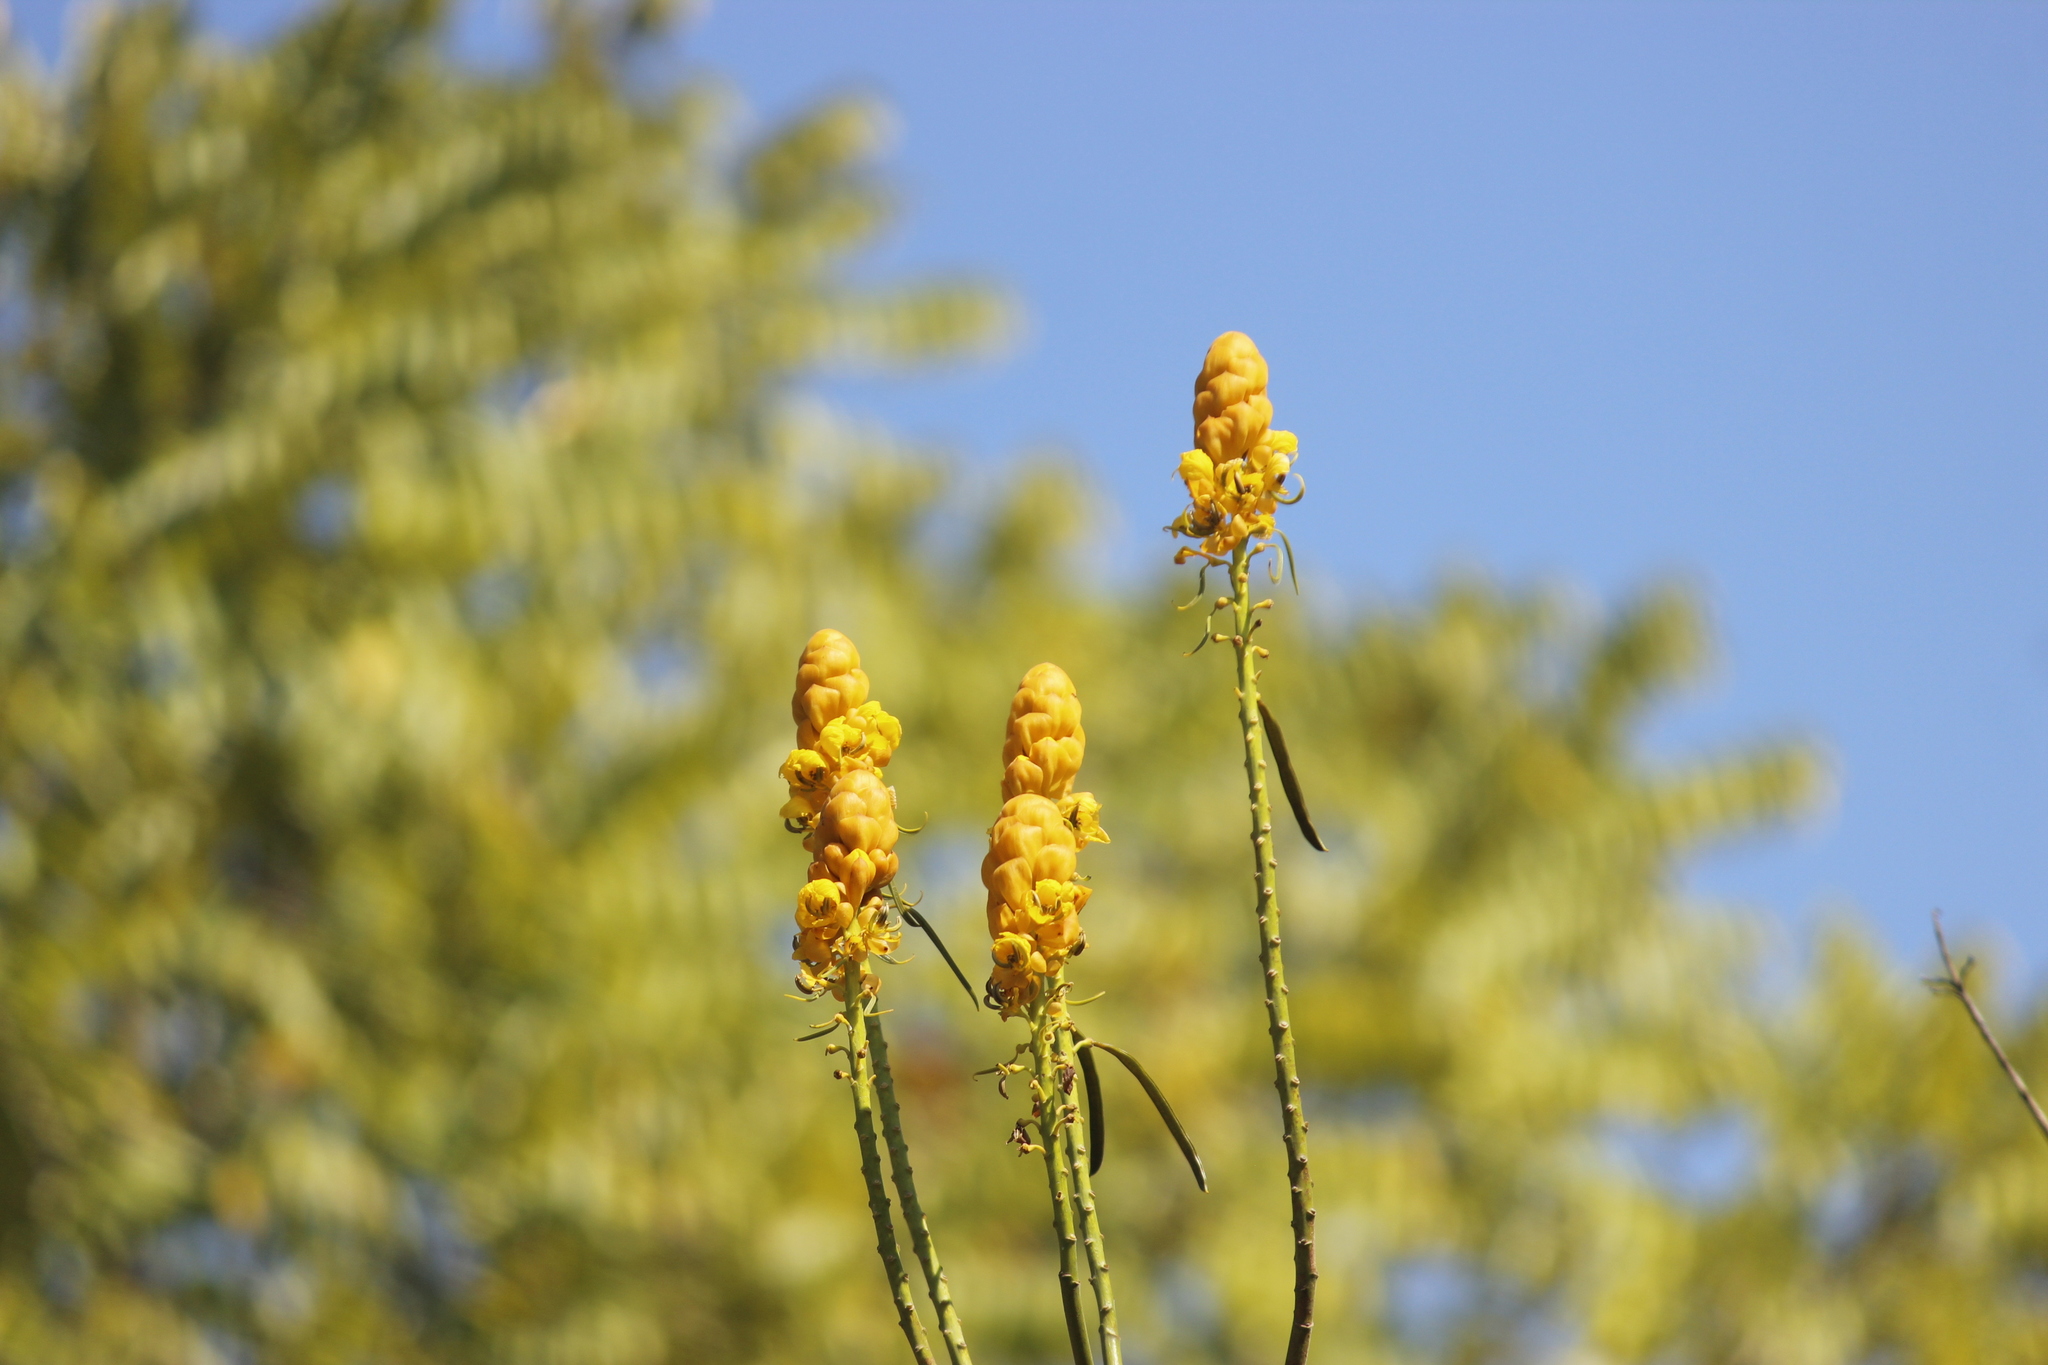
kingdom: Plantae
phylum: Tracheophyta
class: Magnoliopsida
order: Fabales
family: Fabaceae
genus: Senna
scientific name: Senna reticulata
